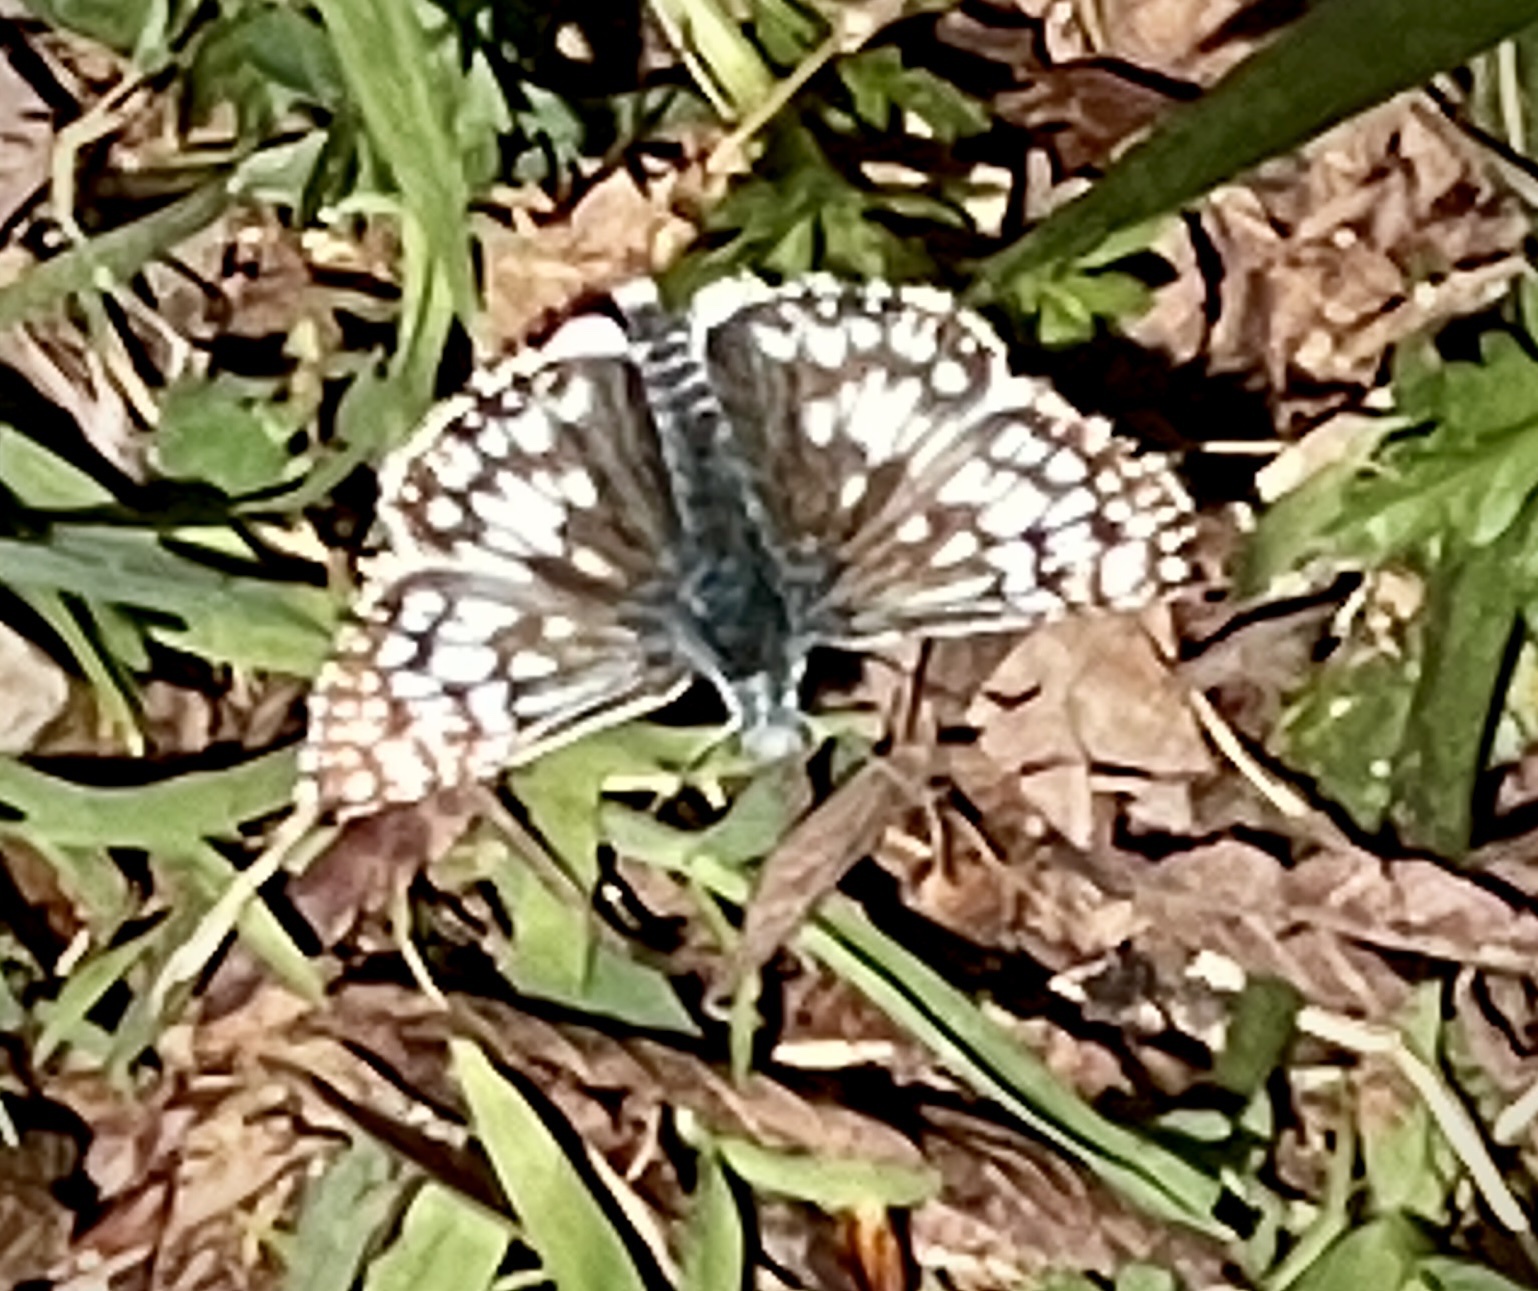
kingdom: Animalia
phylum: Arthropoda
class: Insecta
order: Lepidoptera
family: Hesperiidae
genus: Burnsius
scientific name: Burnsius communis
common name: Common checkered-skipper
